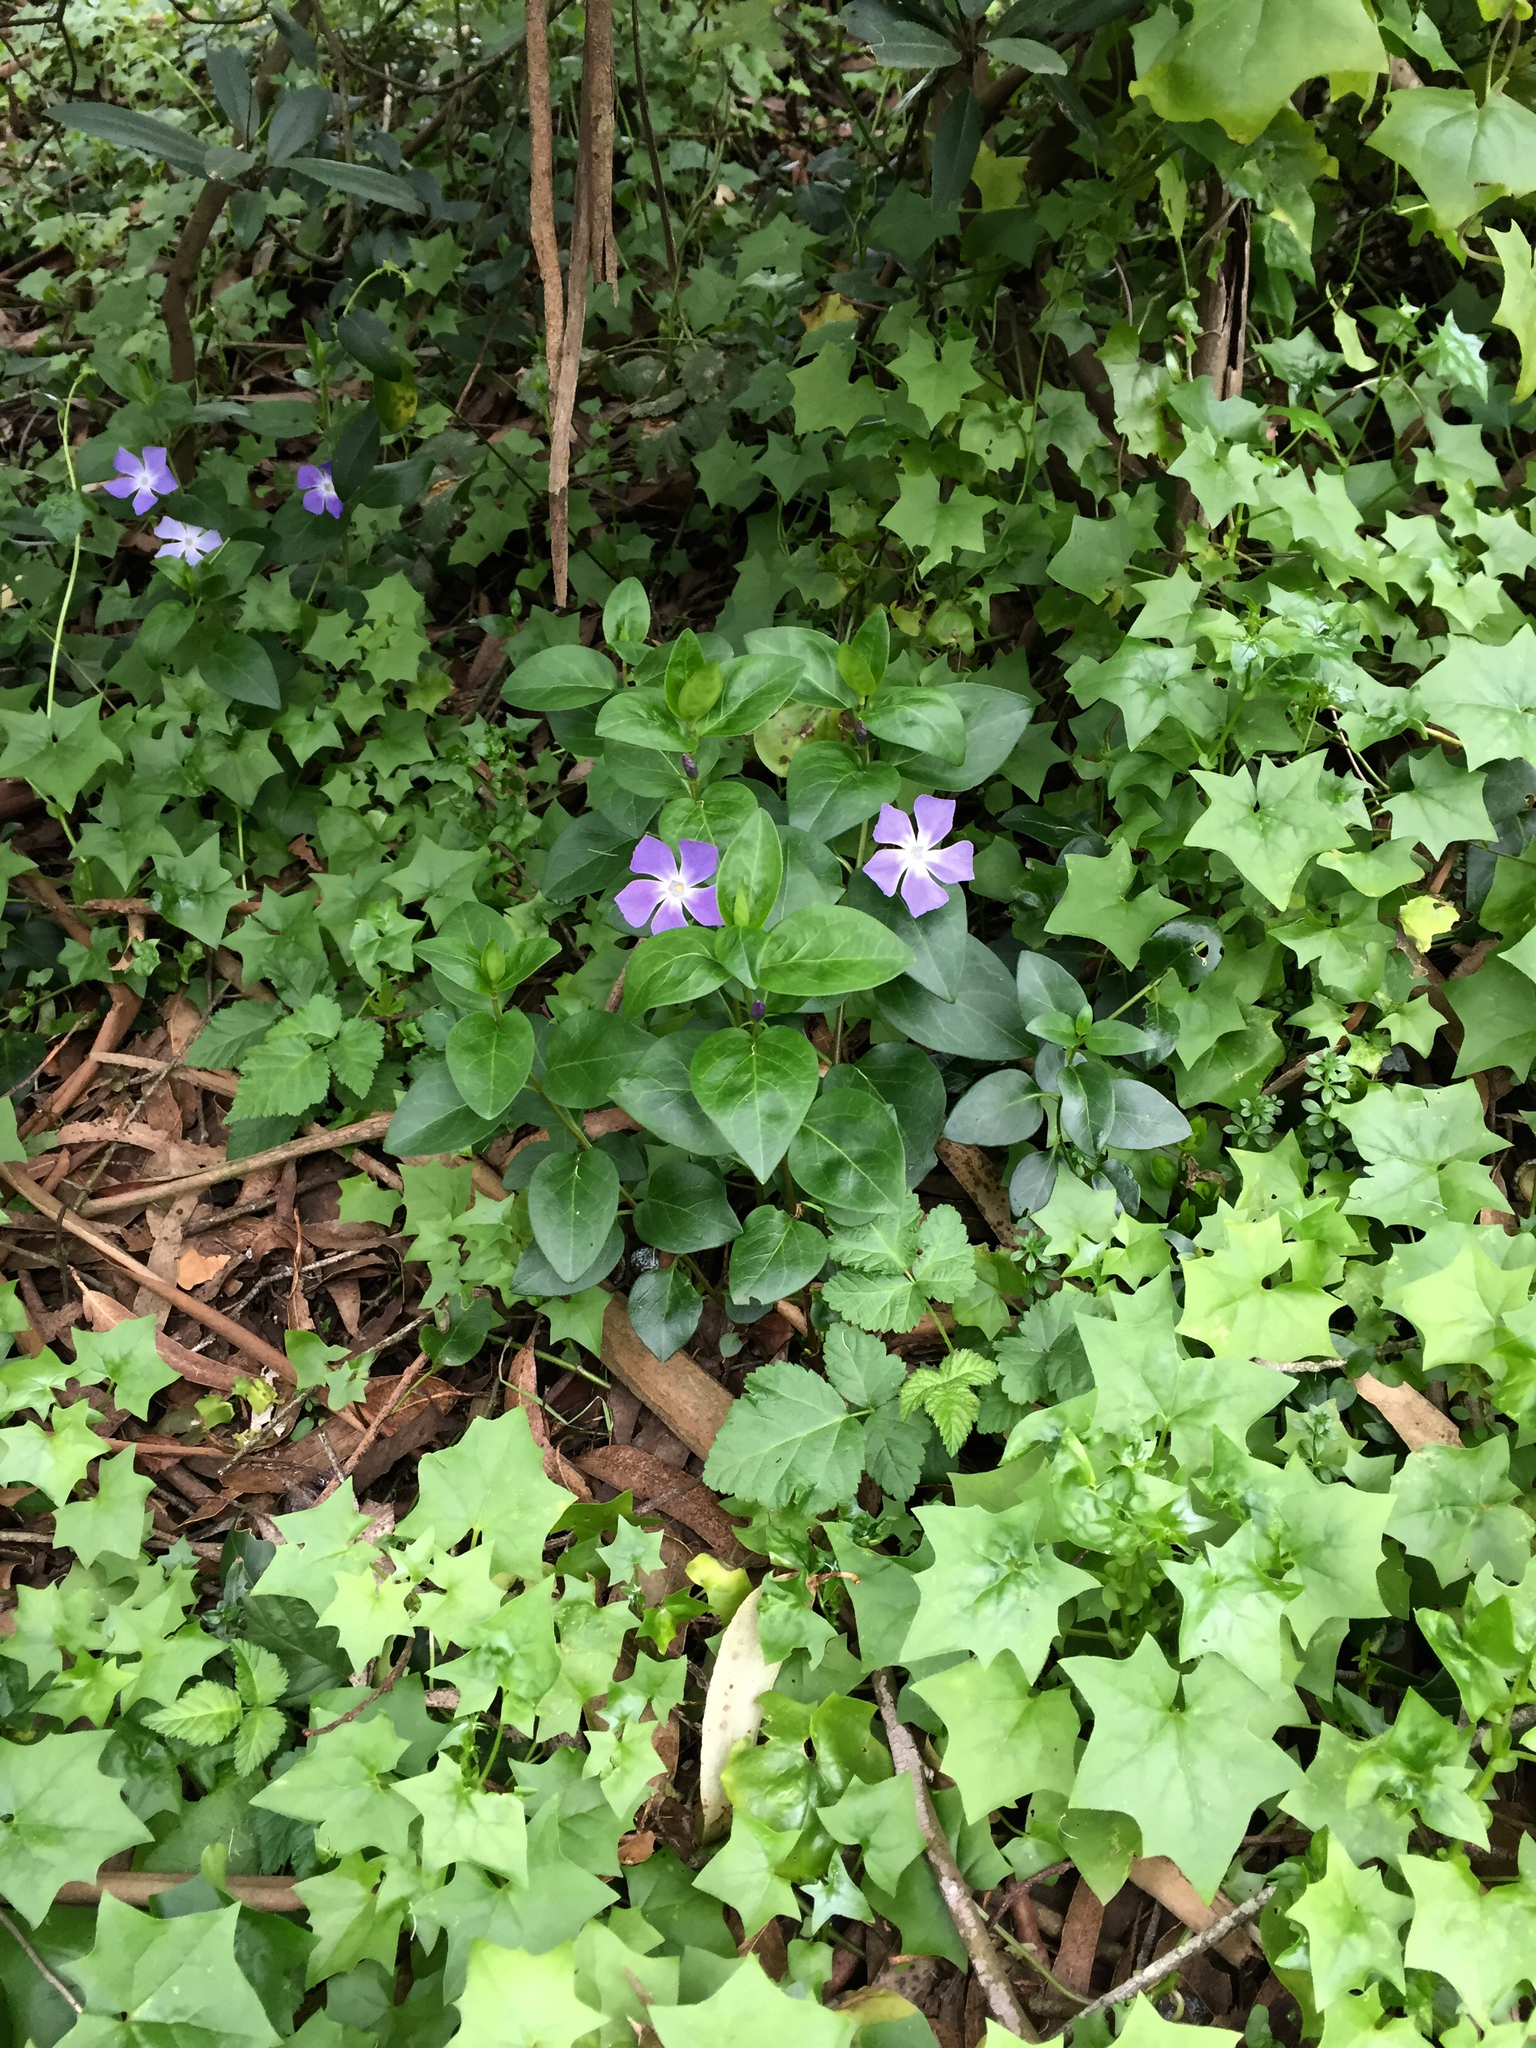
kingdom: Plantae
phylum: Tracheophyta
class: Magnoliopsida
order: Gentianales
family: Apocynaceae
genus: Vinca
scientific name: Vinca major
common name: Greater periwinkle
